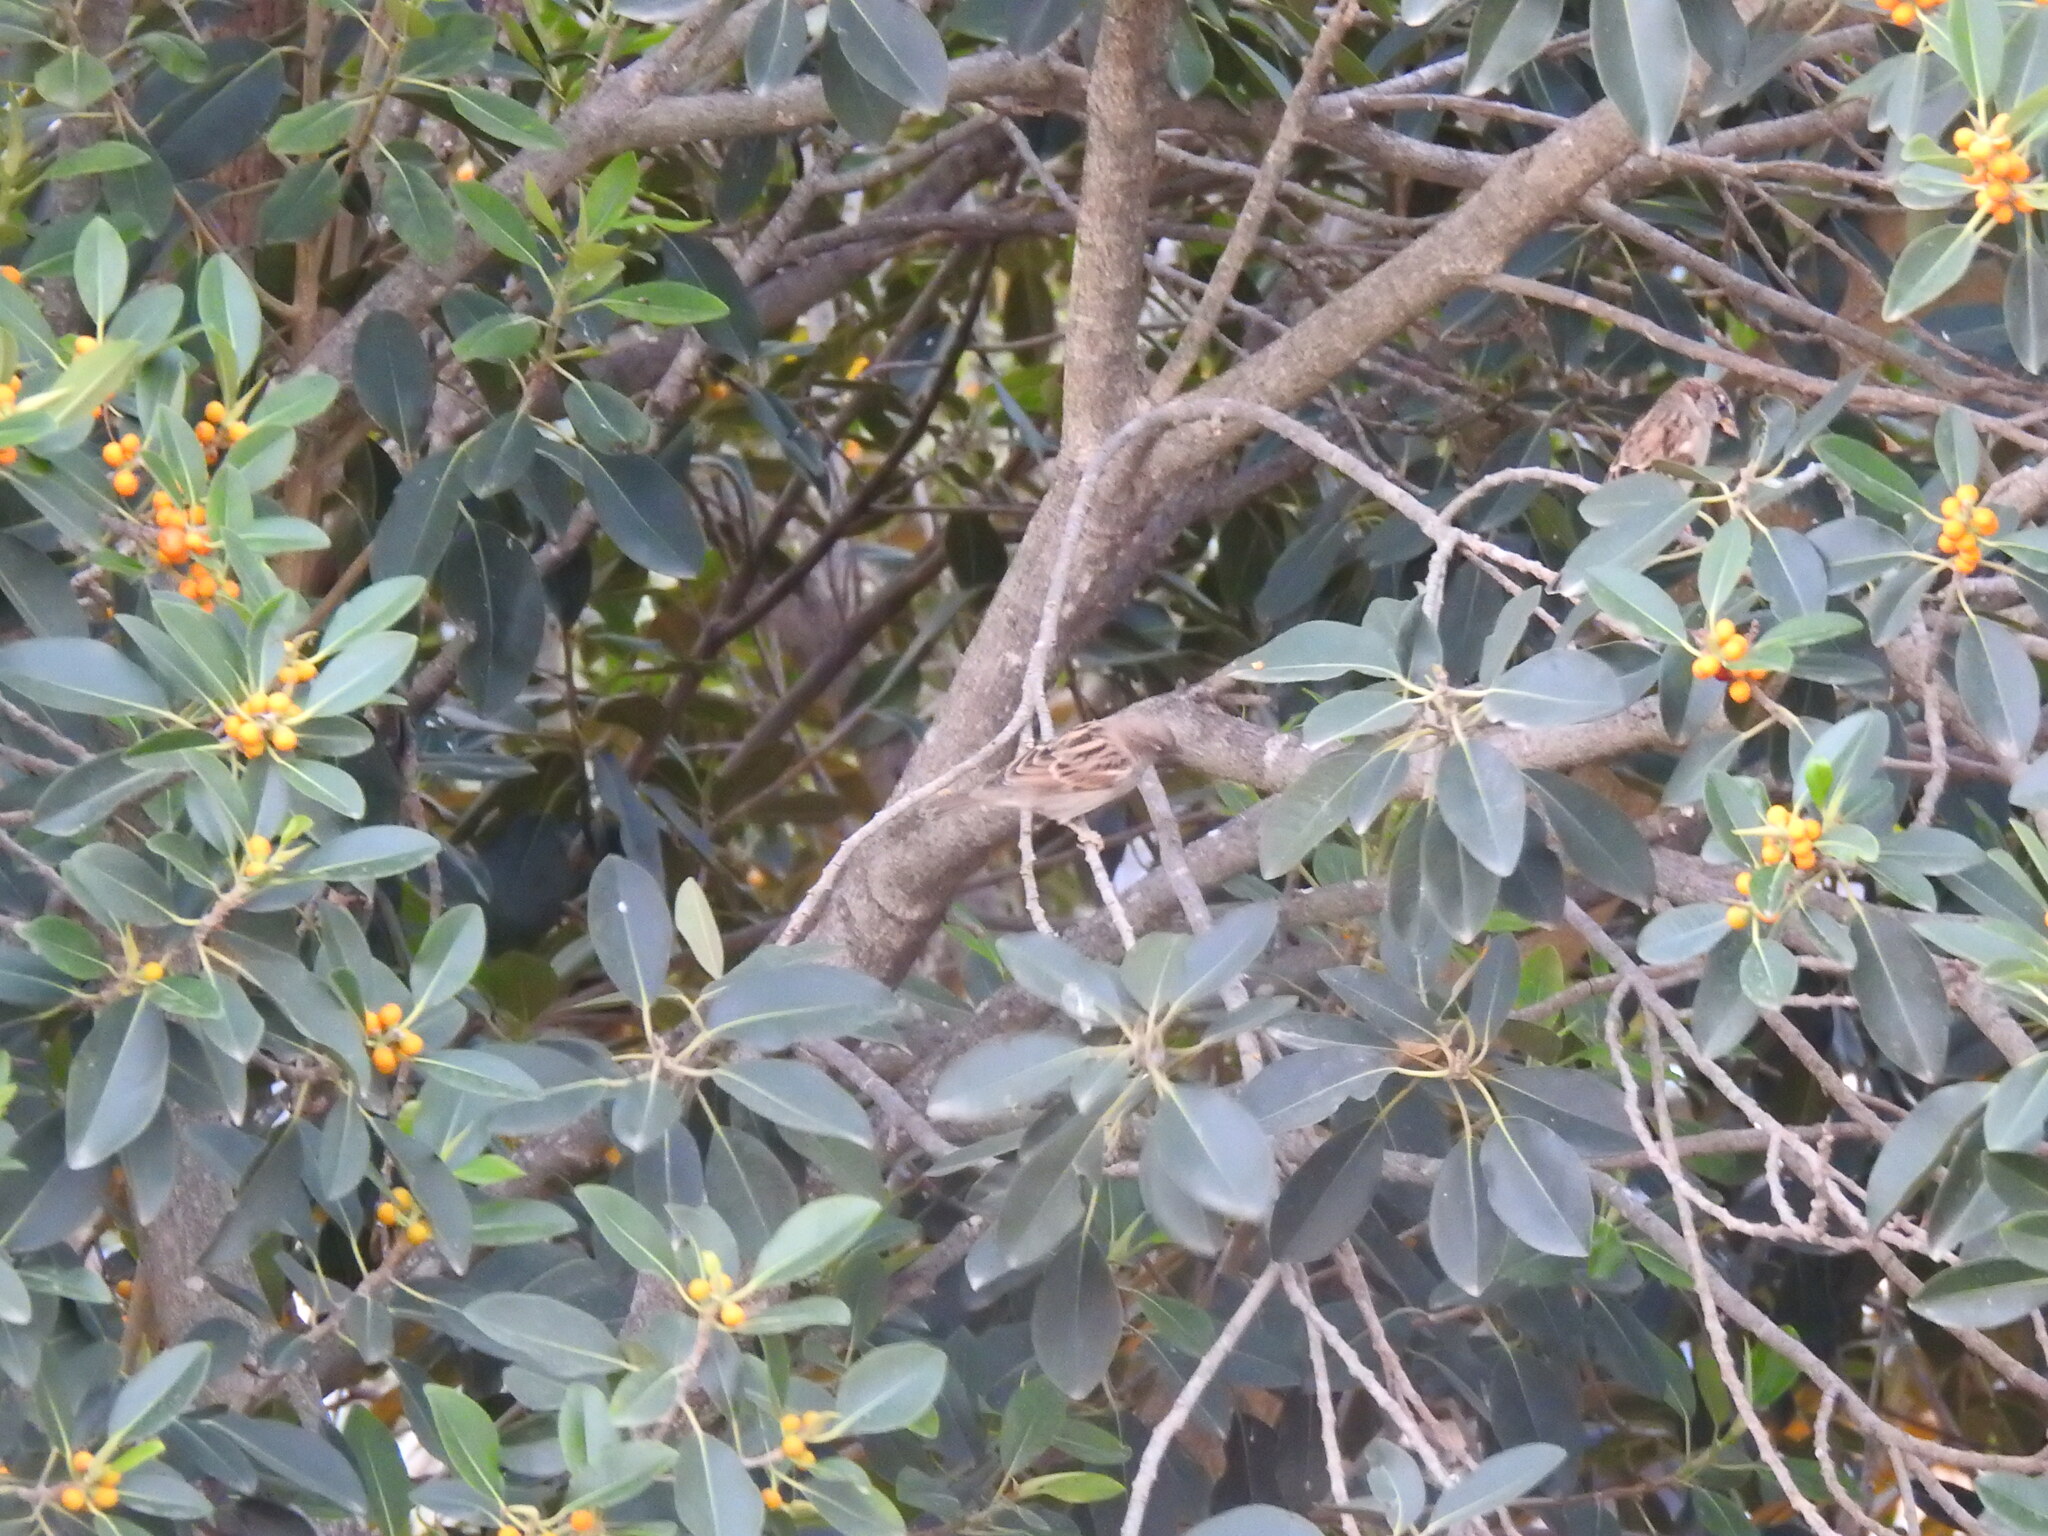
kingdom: Animalia
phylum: Chordata
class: Aves
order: Passeriformes
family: Passeridae
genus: Passer
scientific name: Passer domesticus
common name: House sparrow
